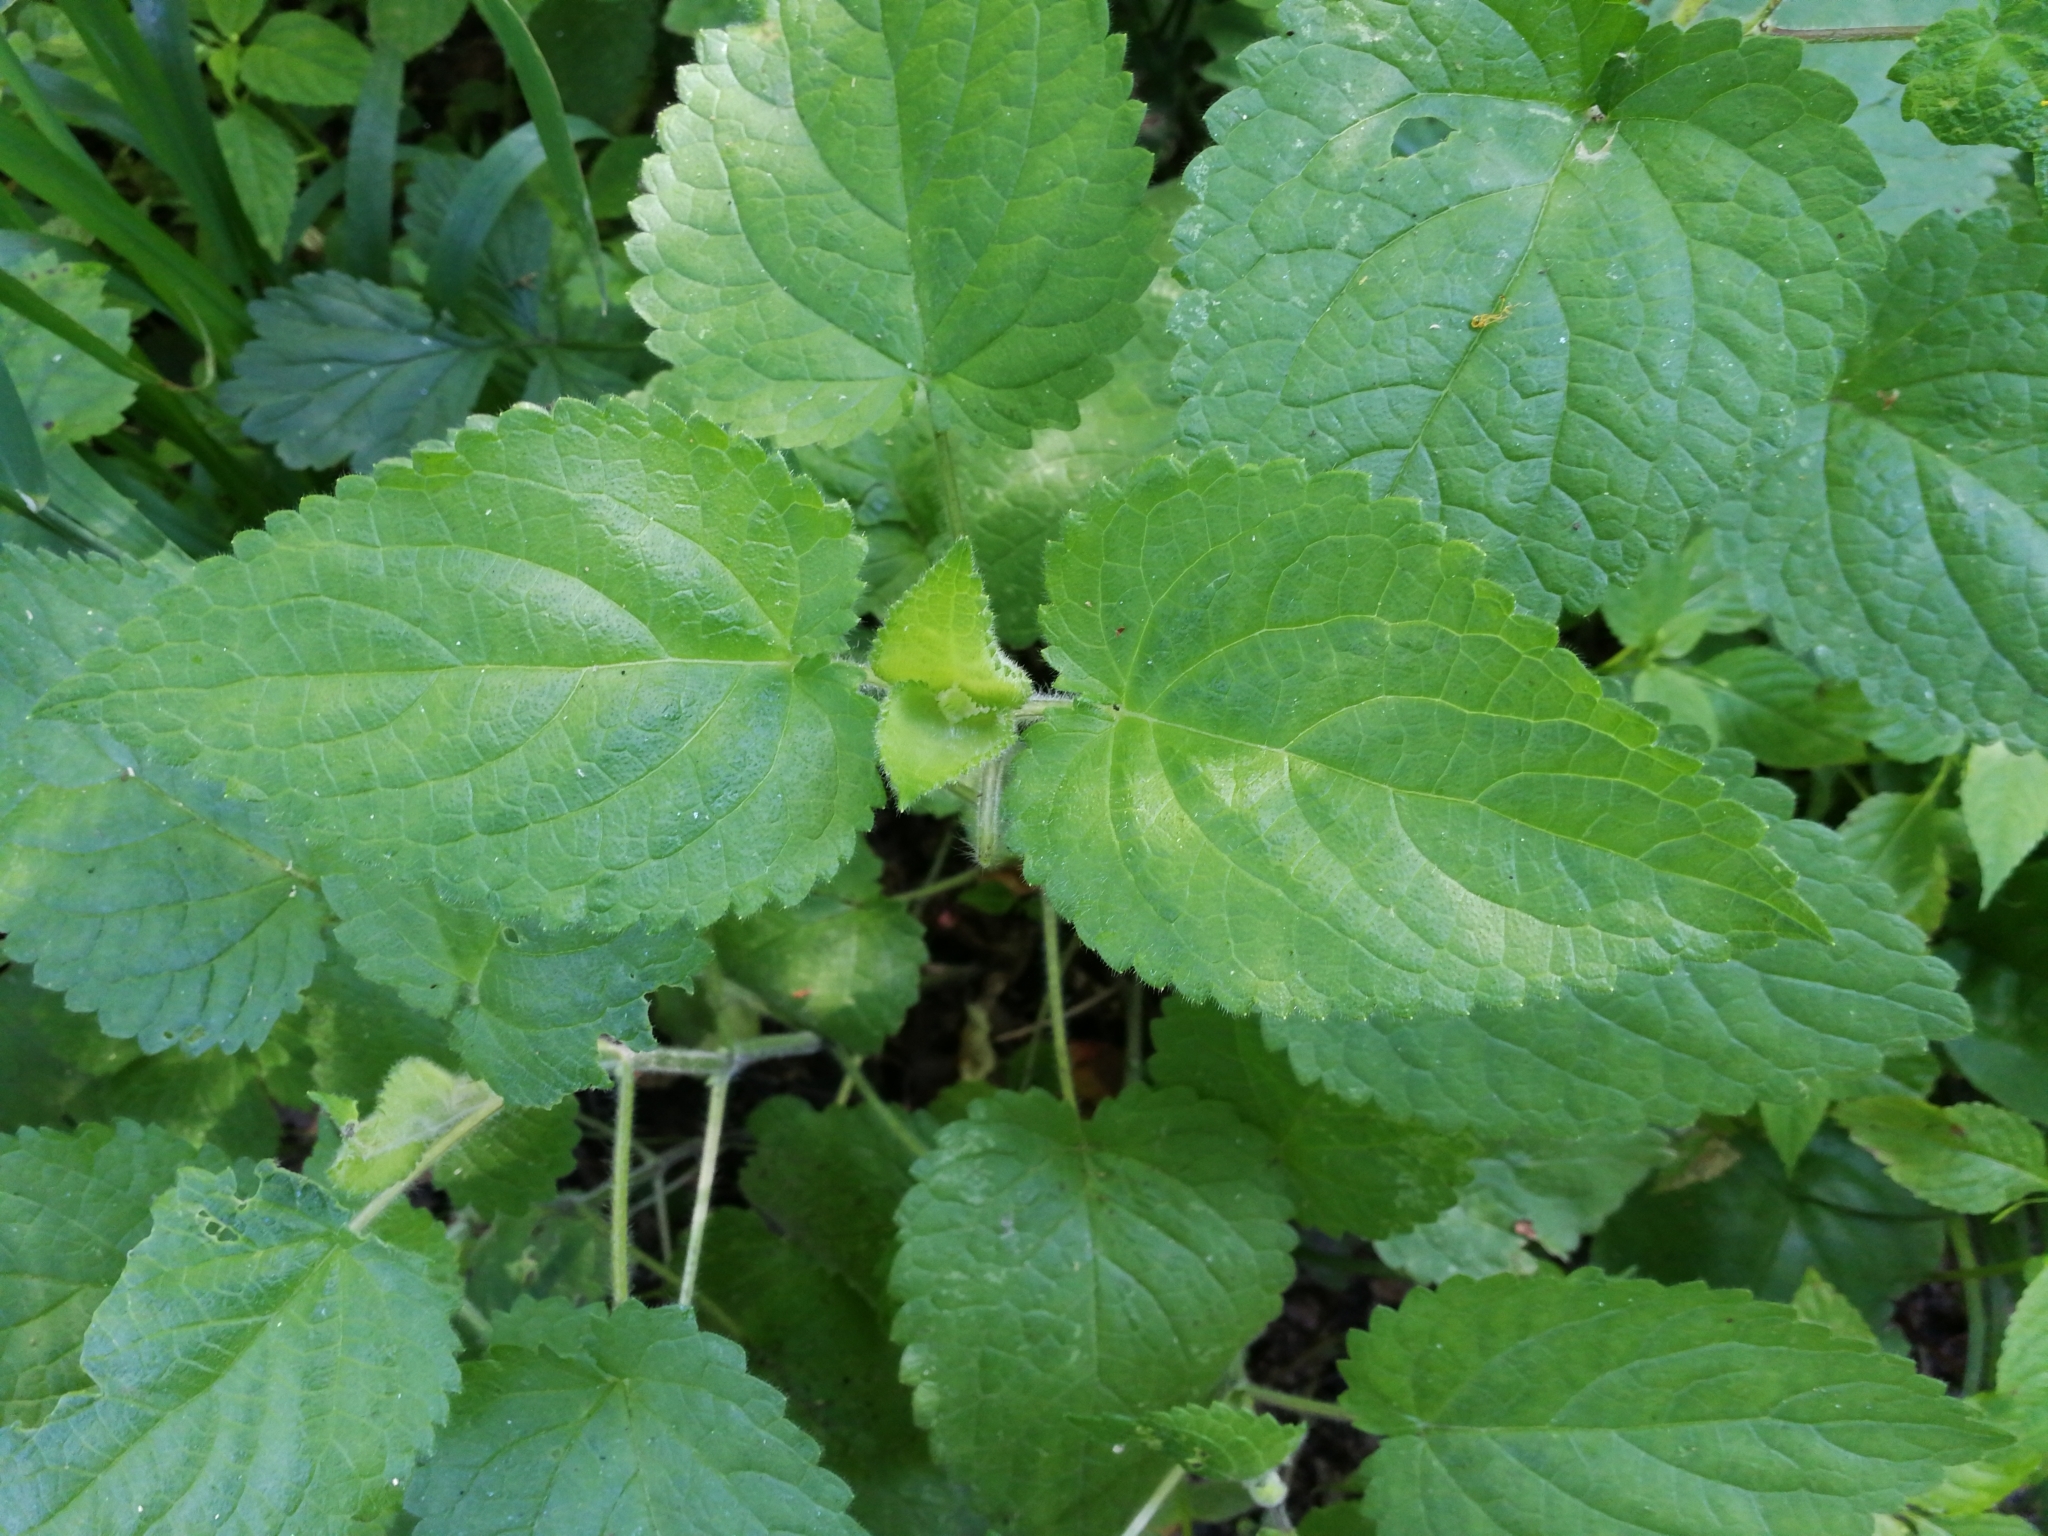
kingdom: Plantae
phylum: Tracheophyta
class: Magnoliopsida
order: Lamiales
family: Lamiaceae
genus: Stachys
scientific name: Stachys sylvatica
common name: Hedge woundwort
